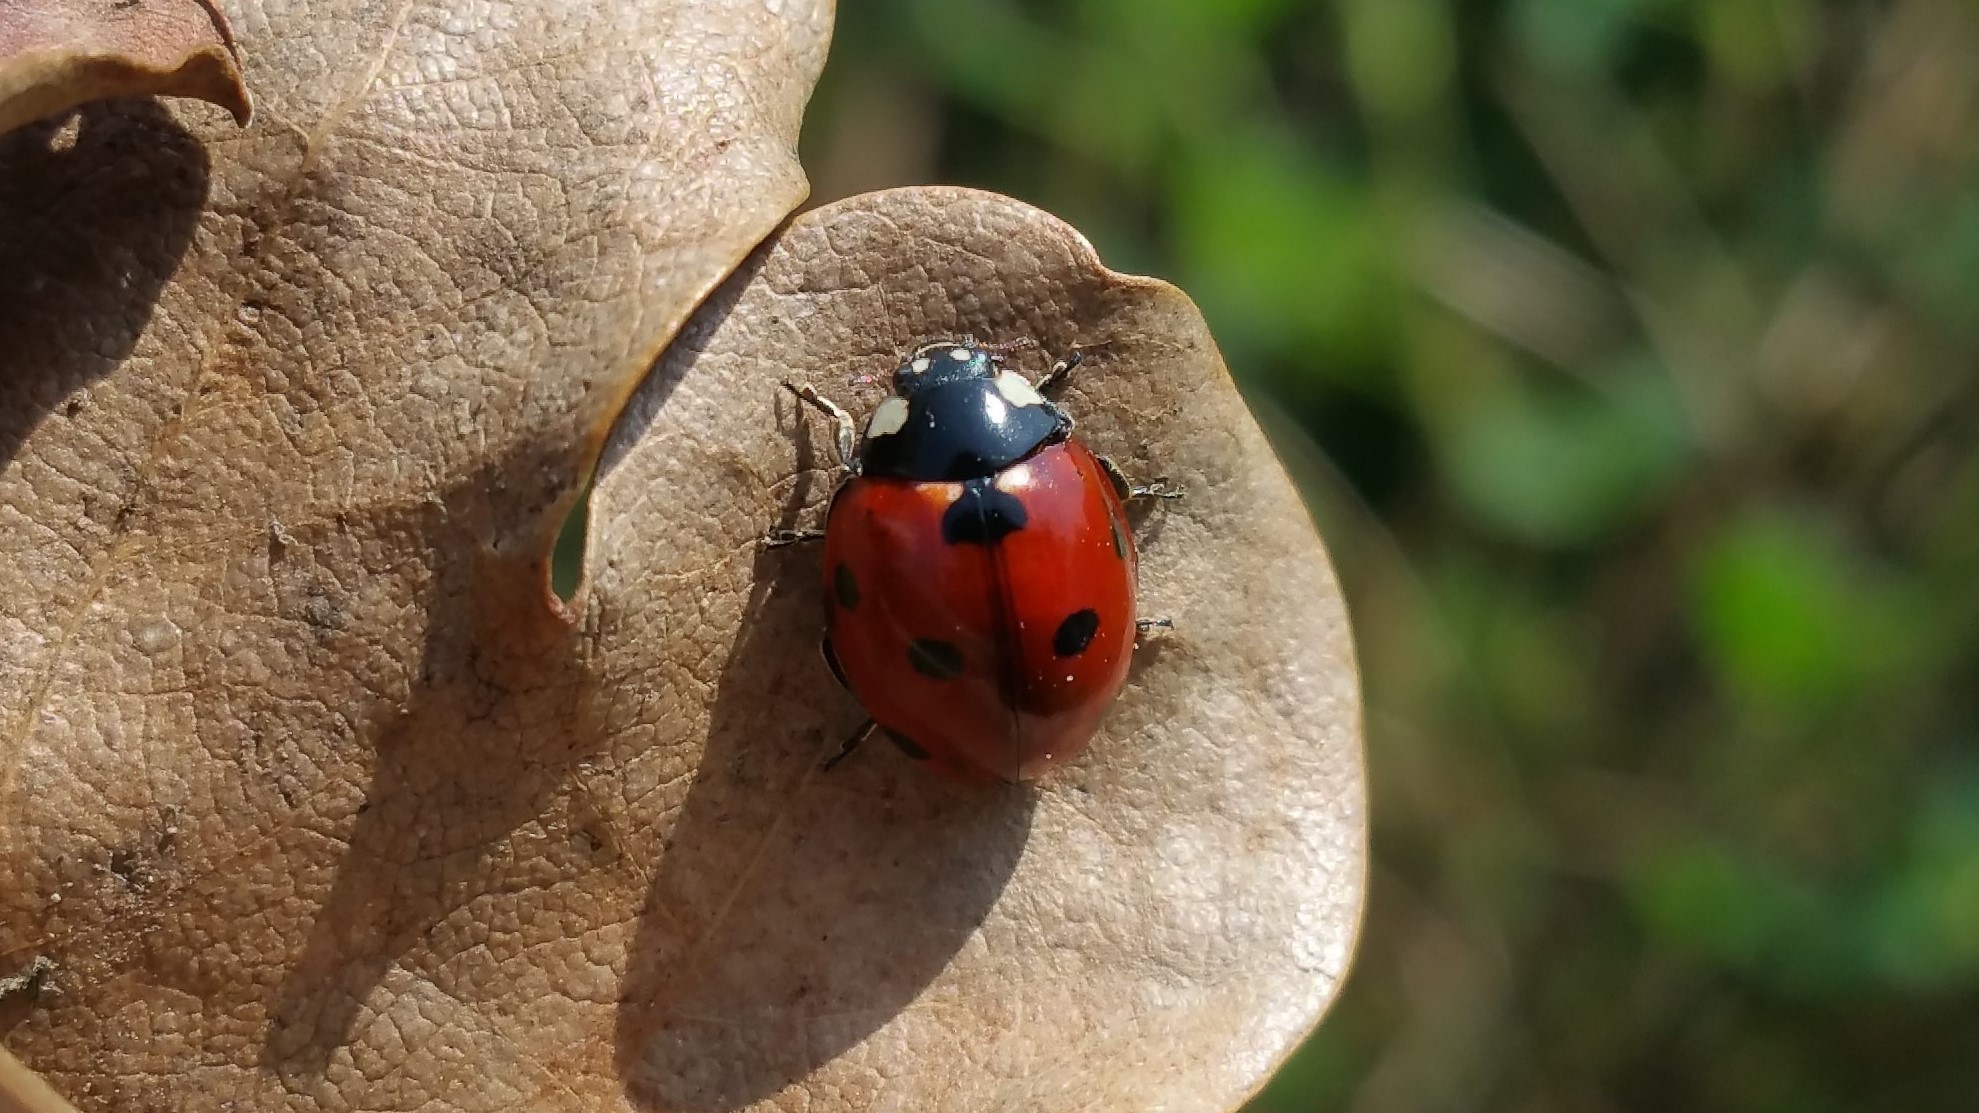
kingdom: Animalia
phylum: Arthropoda
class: Insecta
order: Coleoptera
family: Coccinellidae
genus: Coccinella
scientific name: Coccinella septempunctata
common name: Sevenspotted lady beetle
